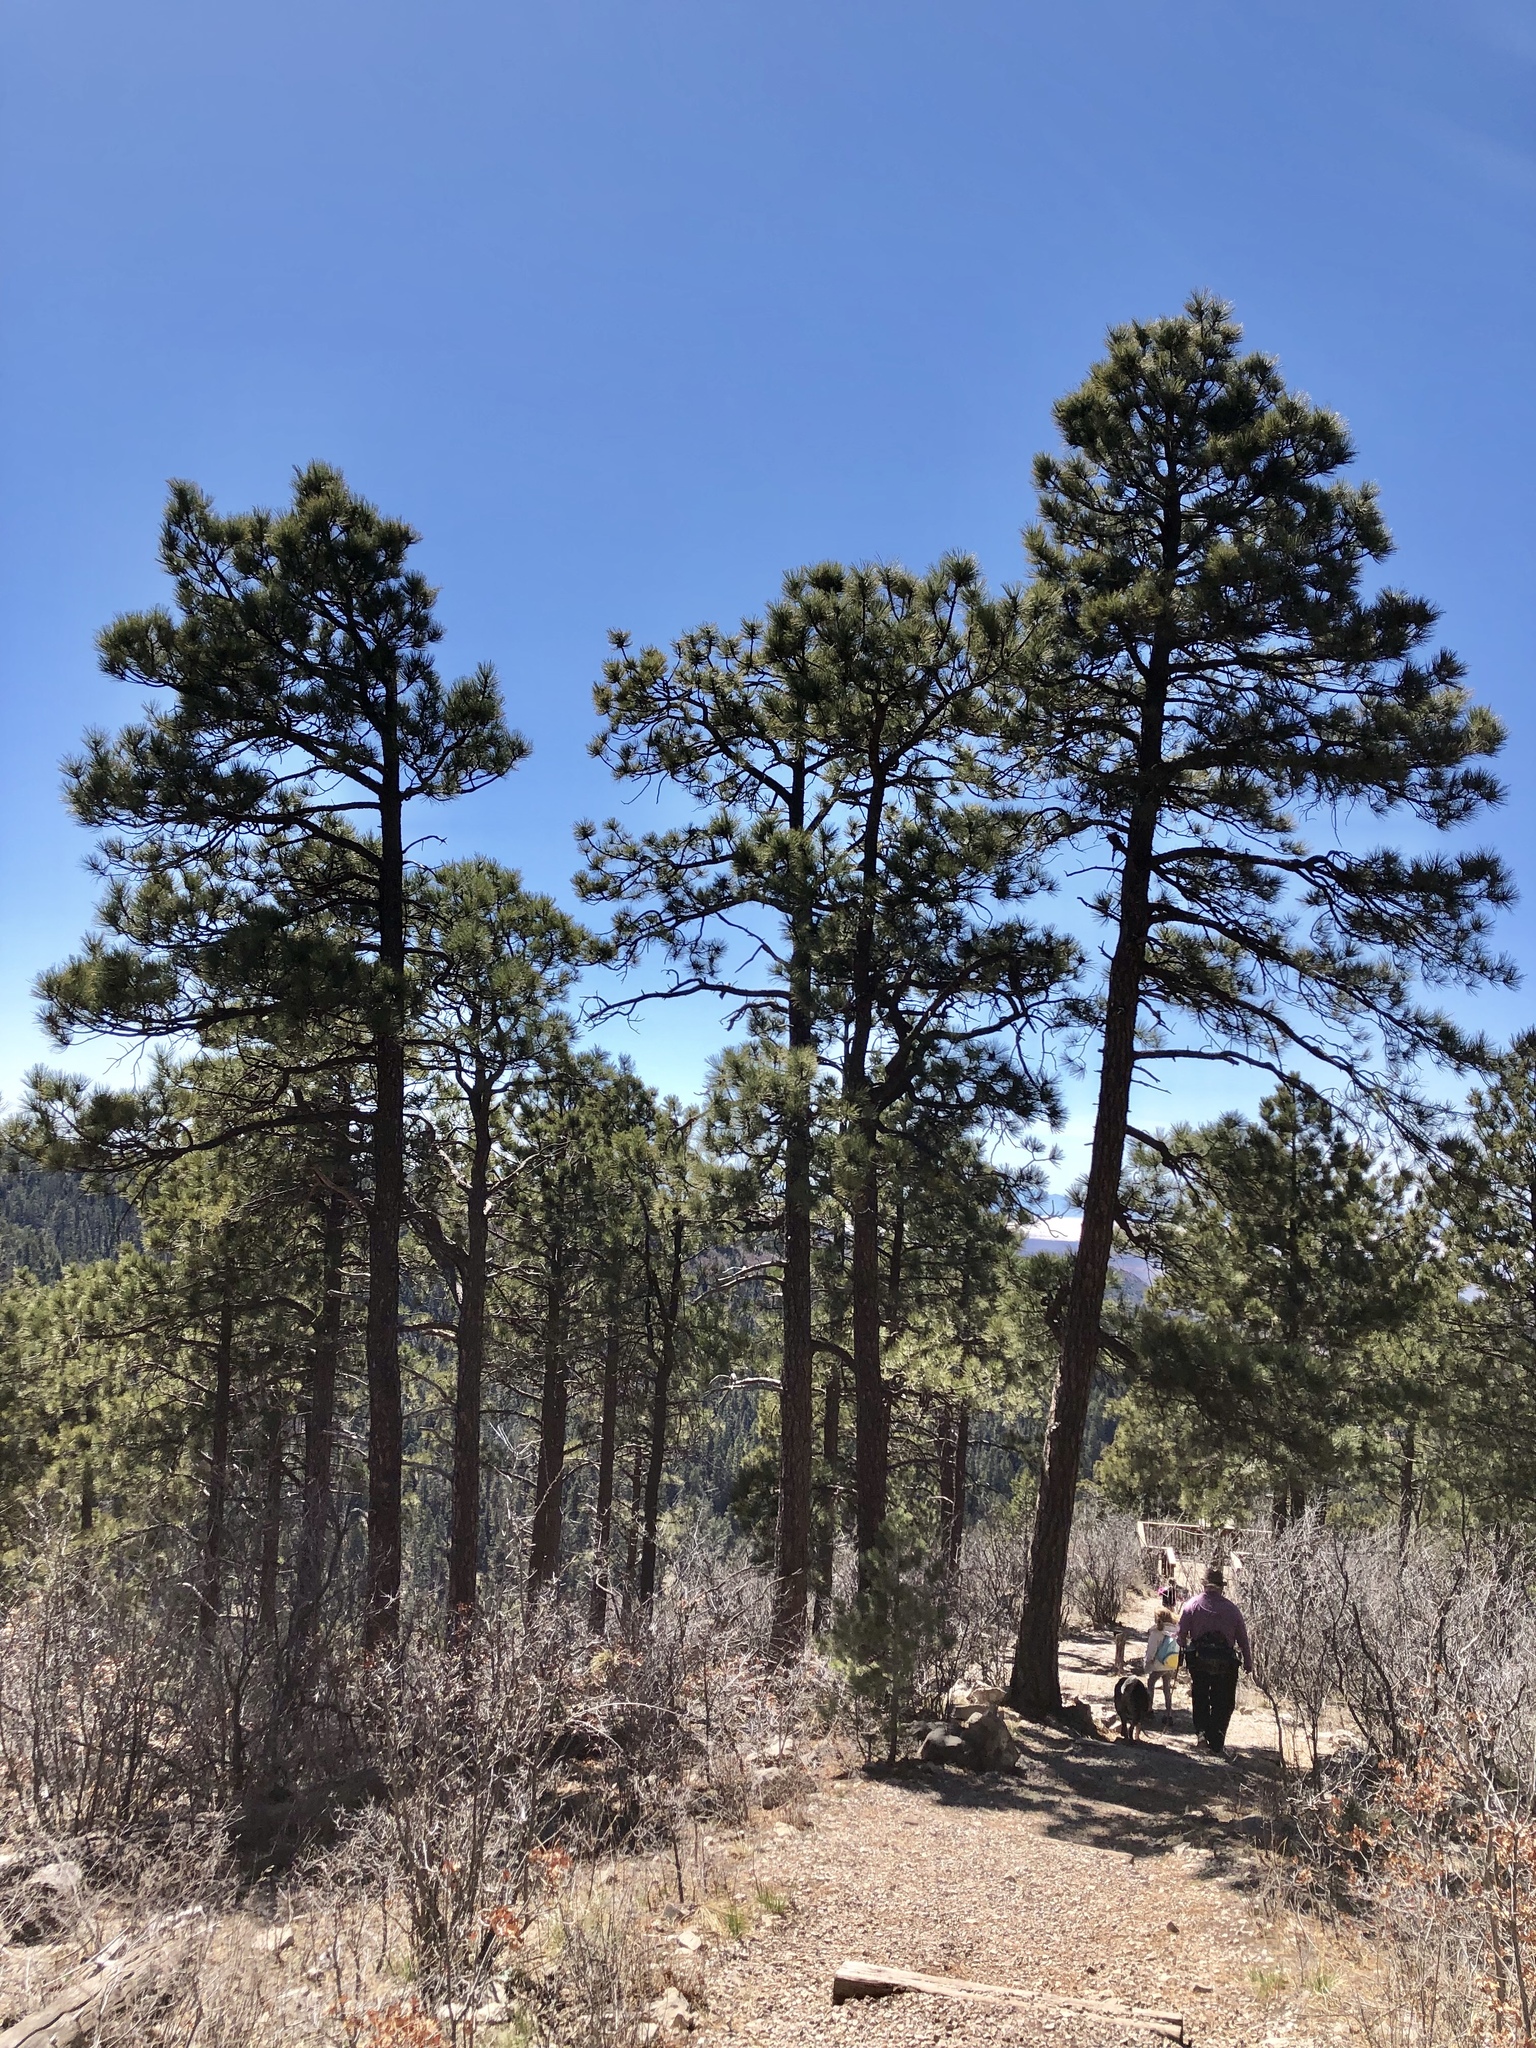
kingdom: Plantae
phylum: Tracheophyta
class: Pinopsida
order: Pinales
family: Pinaceae
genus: Pinus
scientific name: Pinus ponderosa
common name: Western yellow-pine
